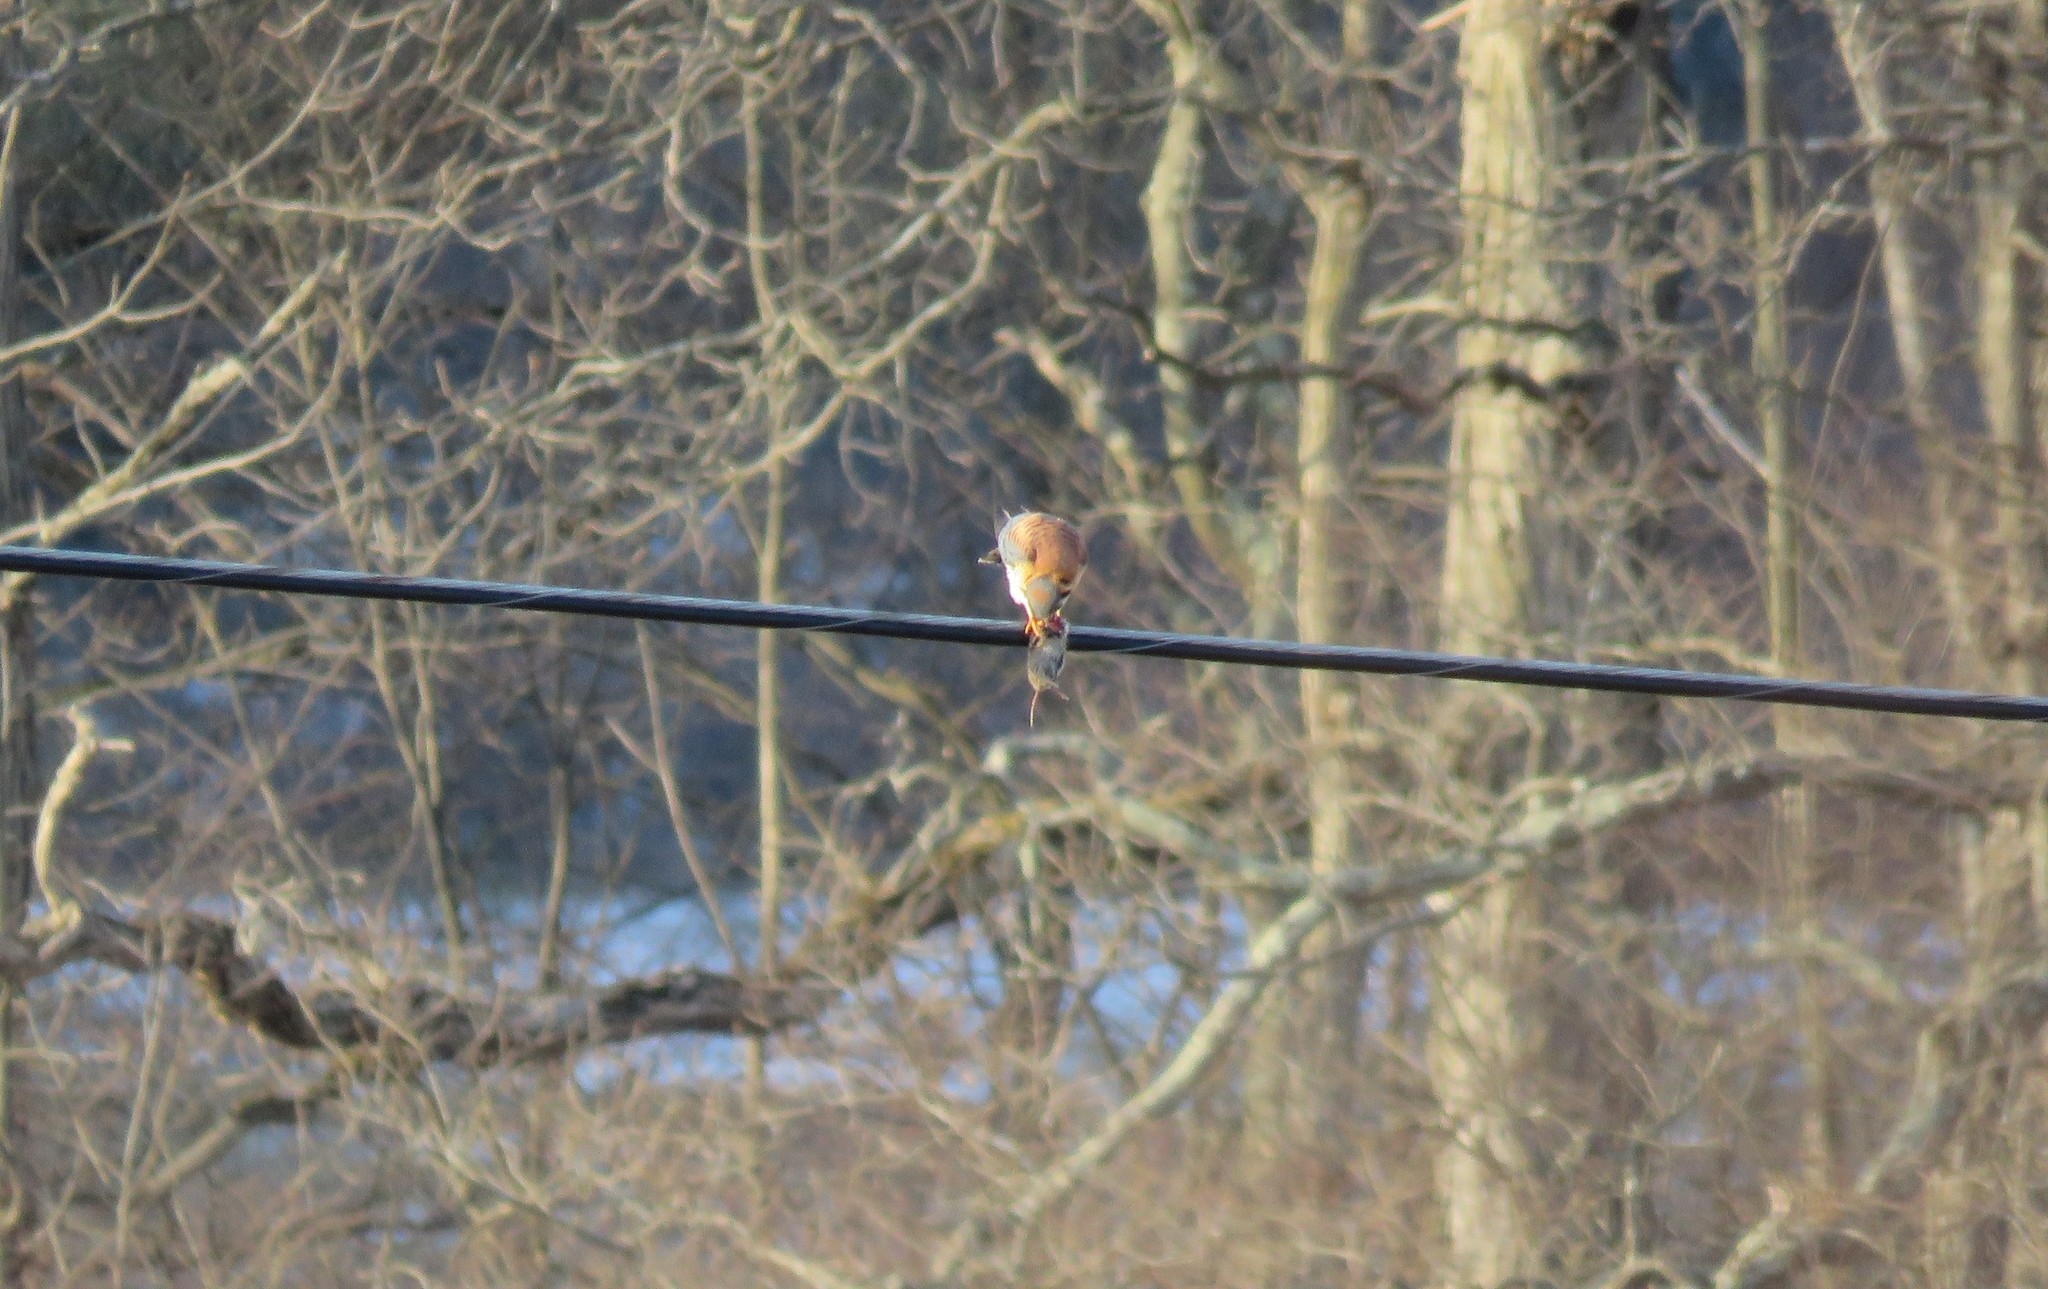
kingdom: Animalia
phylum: Chordata
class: Aves
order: Falconiformes
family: Falconidae
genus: Falco
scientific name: Falco sparverius
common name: American kestrel
